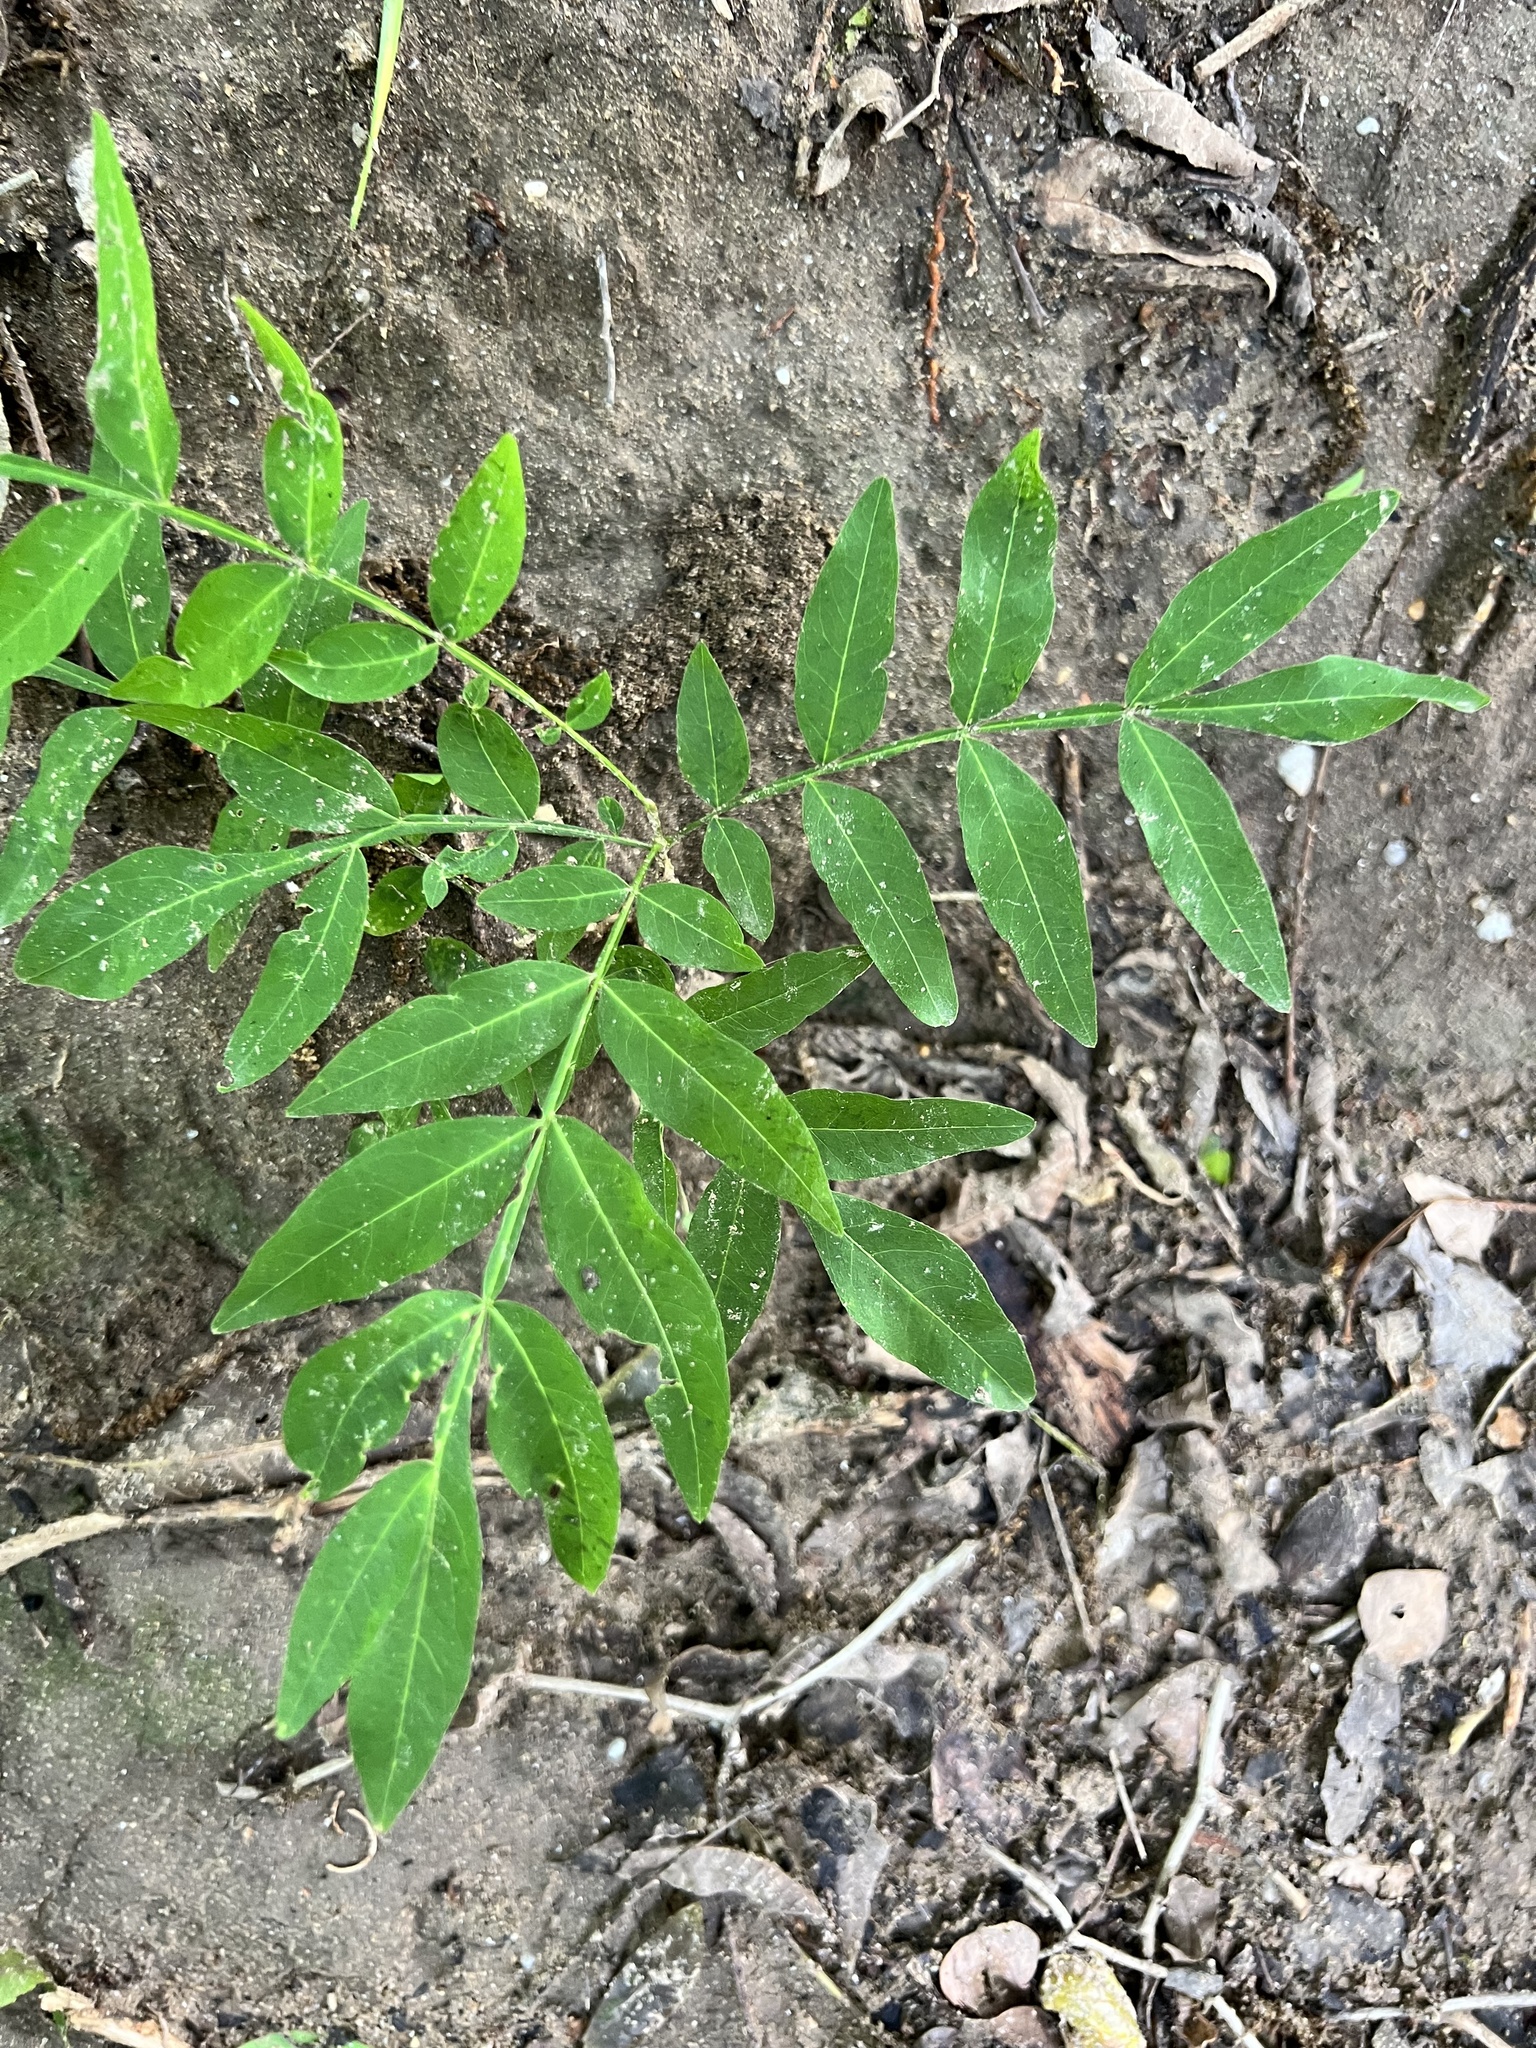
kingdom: Plantae
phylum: Tracheophyta
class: Magnoliopsida
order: Sapindales
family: Sapindaceae
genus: Sapindus
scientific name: Sapindus drummondii
